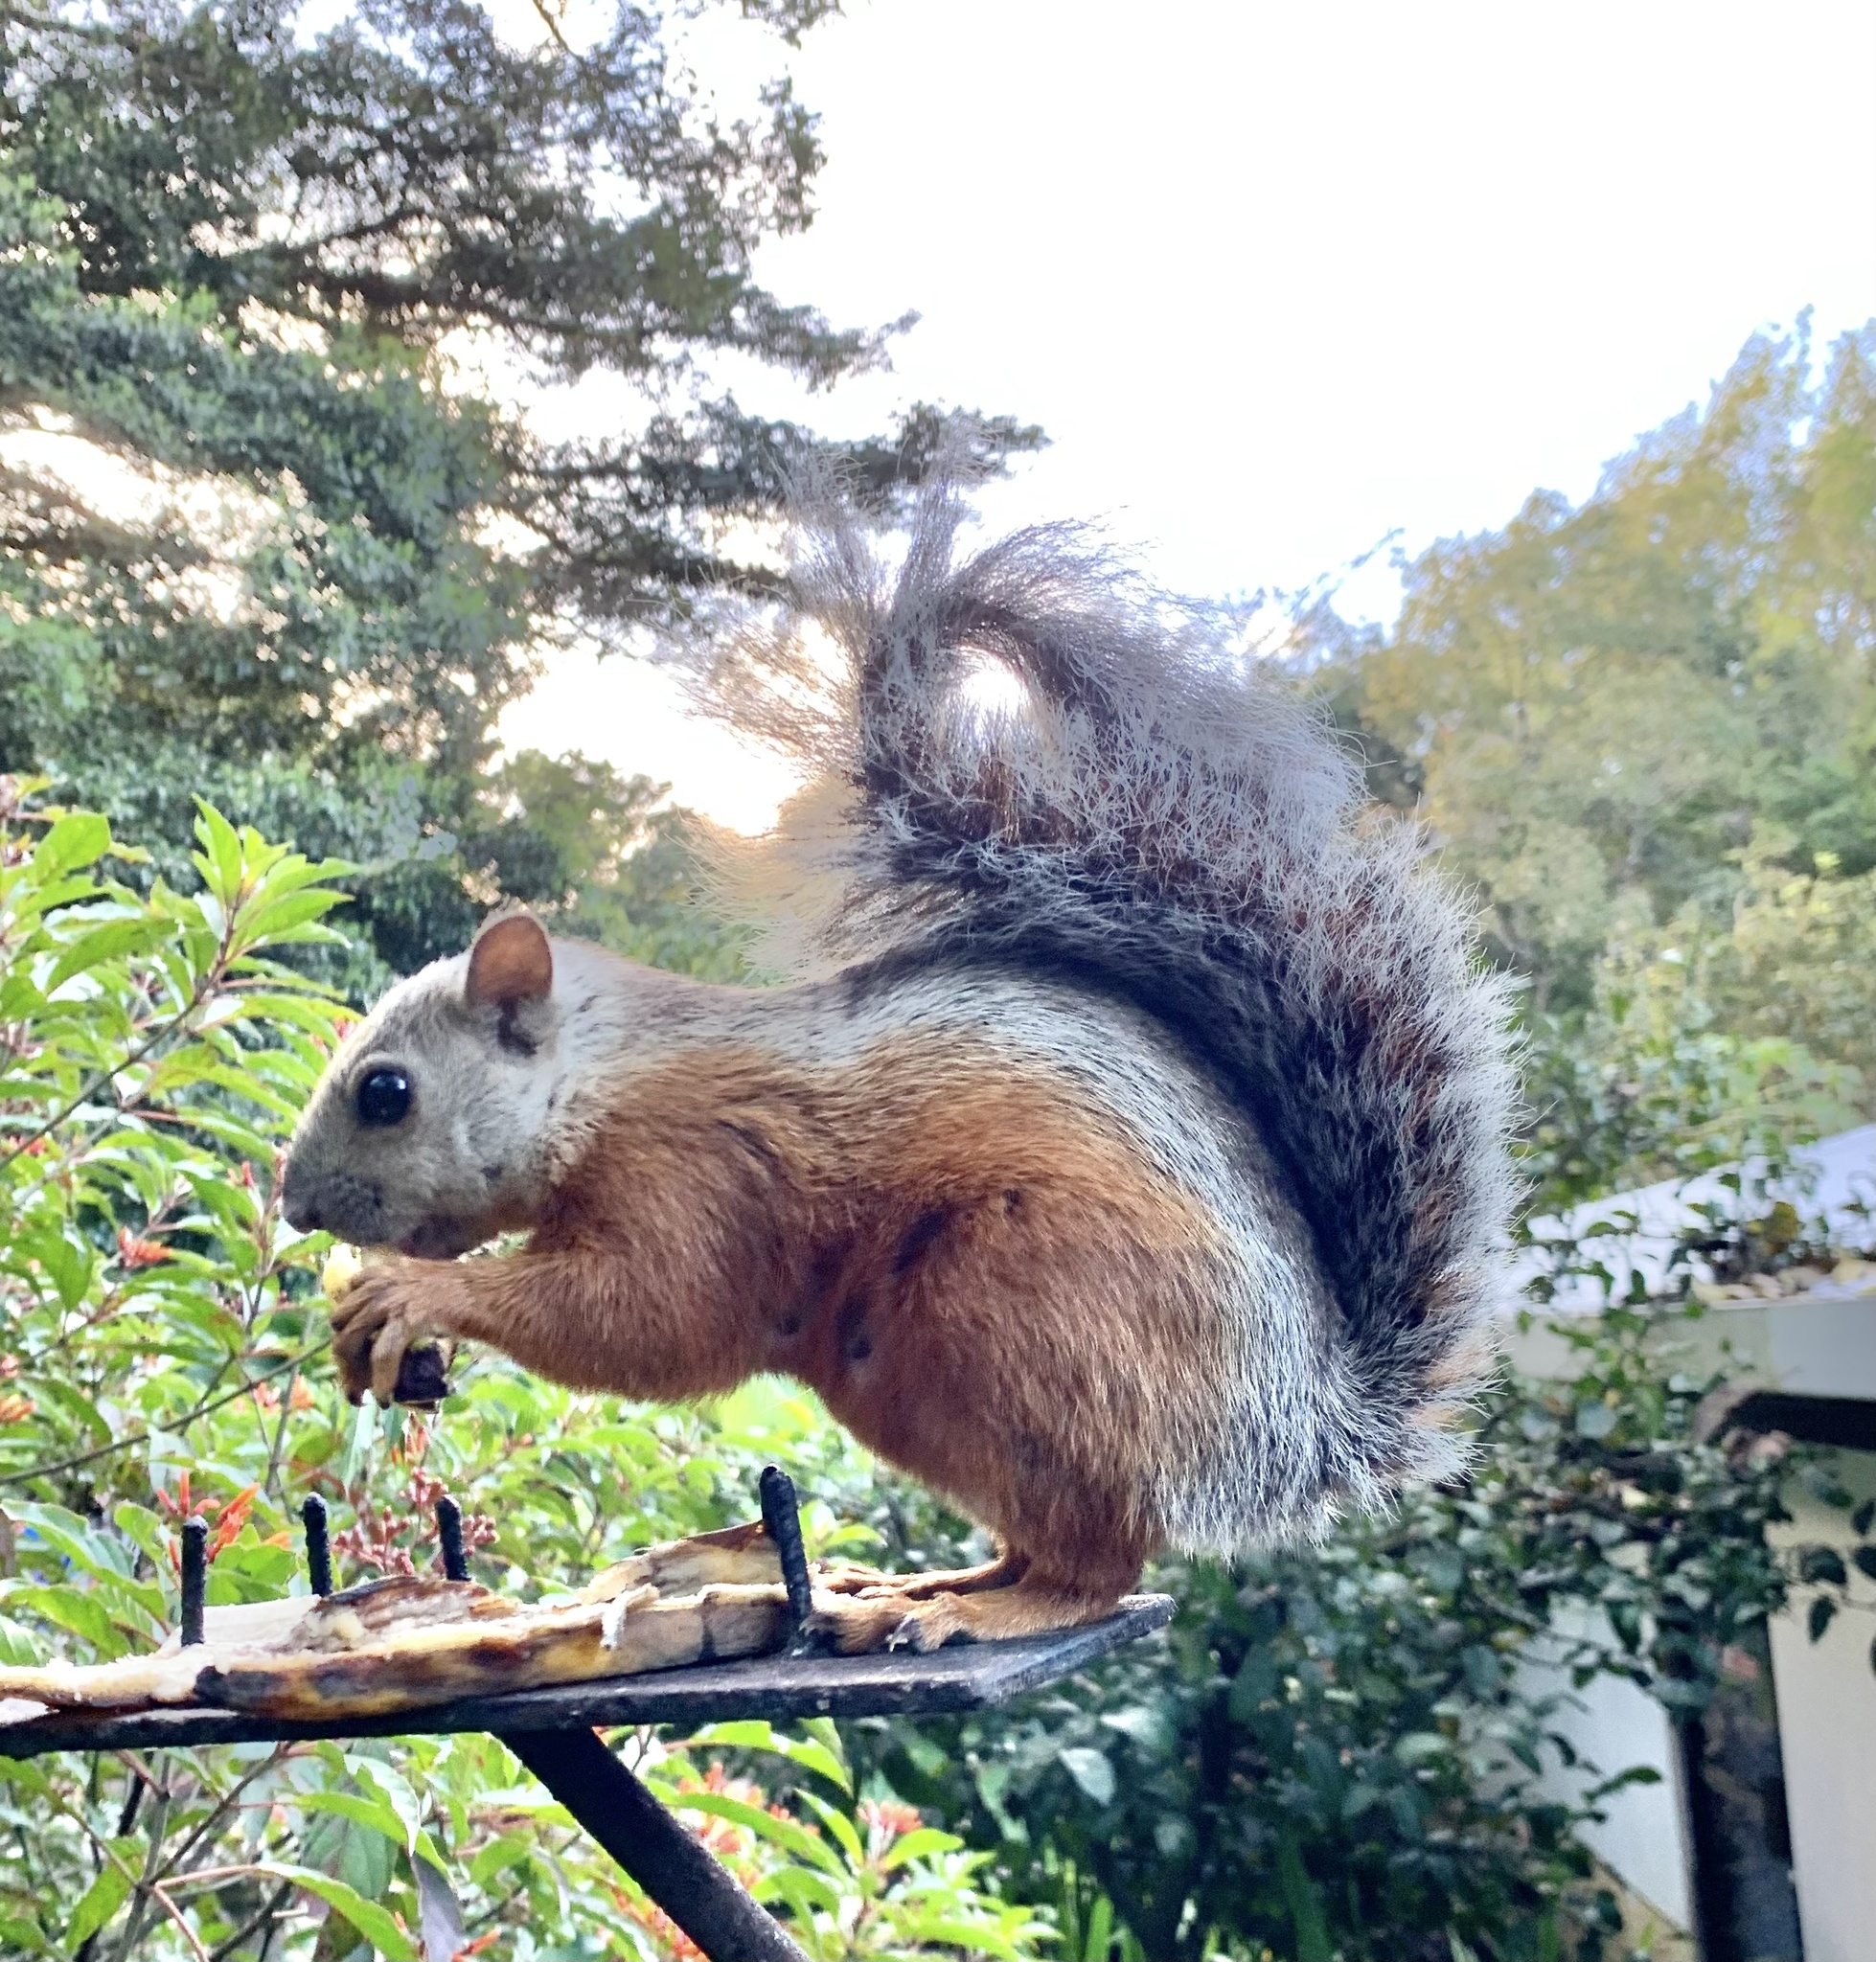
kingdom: Animalia
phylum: Chordata
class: Mammalia
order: Rodentia
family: Sciuridae
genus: Sciurus
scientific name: Sciurus variegatoides
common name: Variegated squirrel
